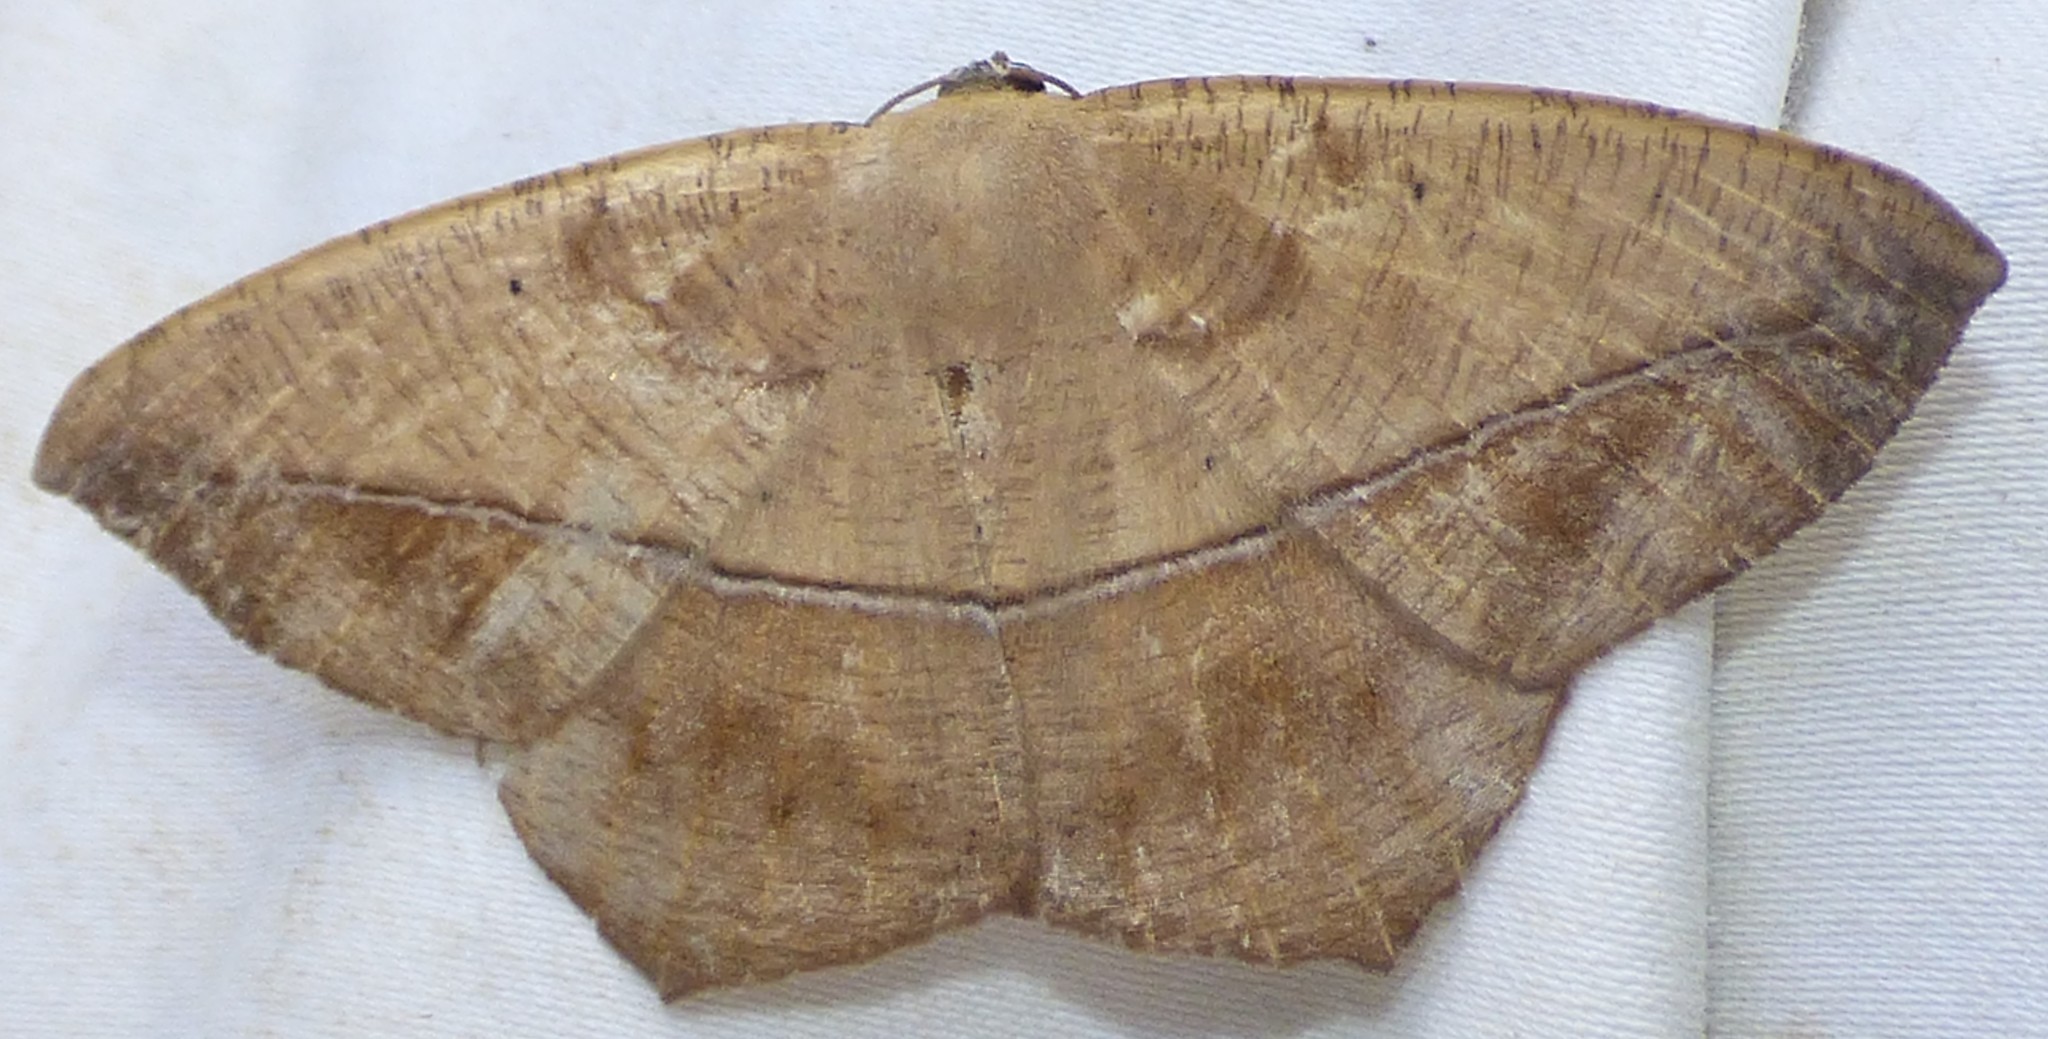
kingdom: Animalia
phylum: Arthropoda
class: Insecta
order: Lepidoptera
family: Geometridae
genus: Prochoerodes
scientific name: Prochoerodes lineola
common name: Large maple spanworm
